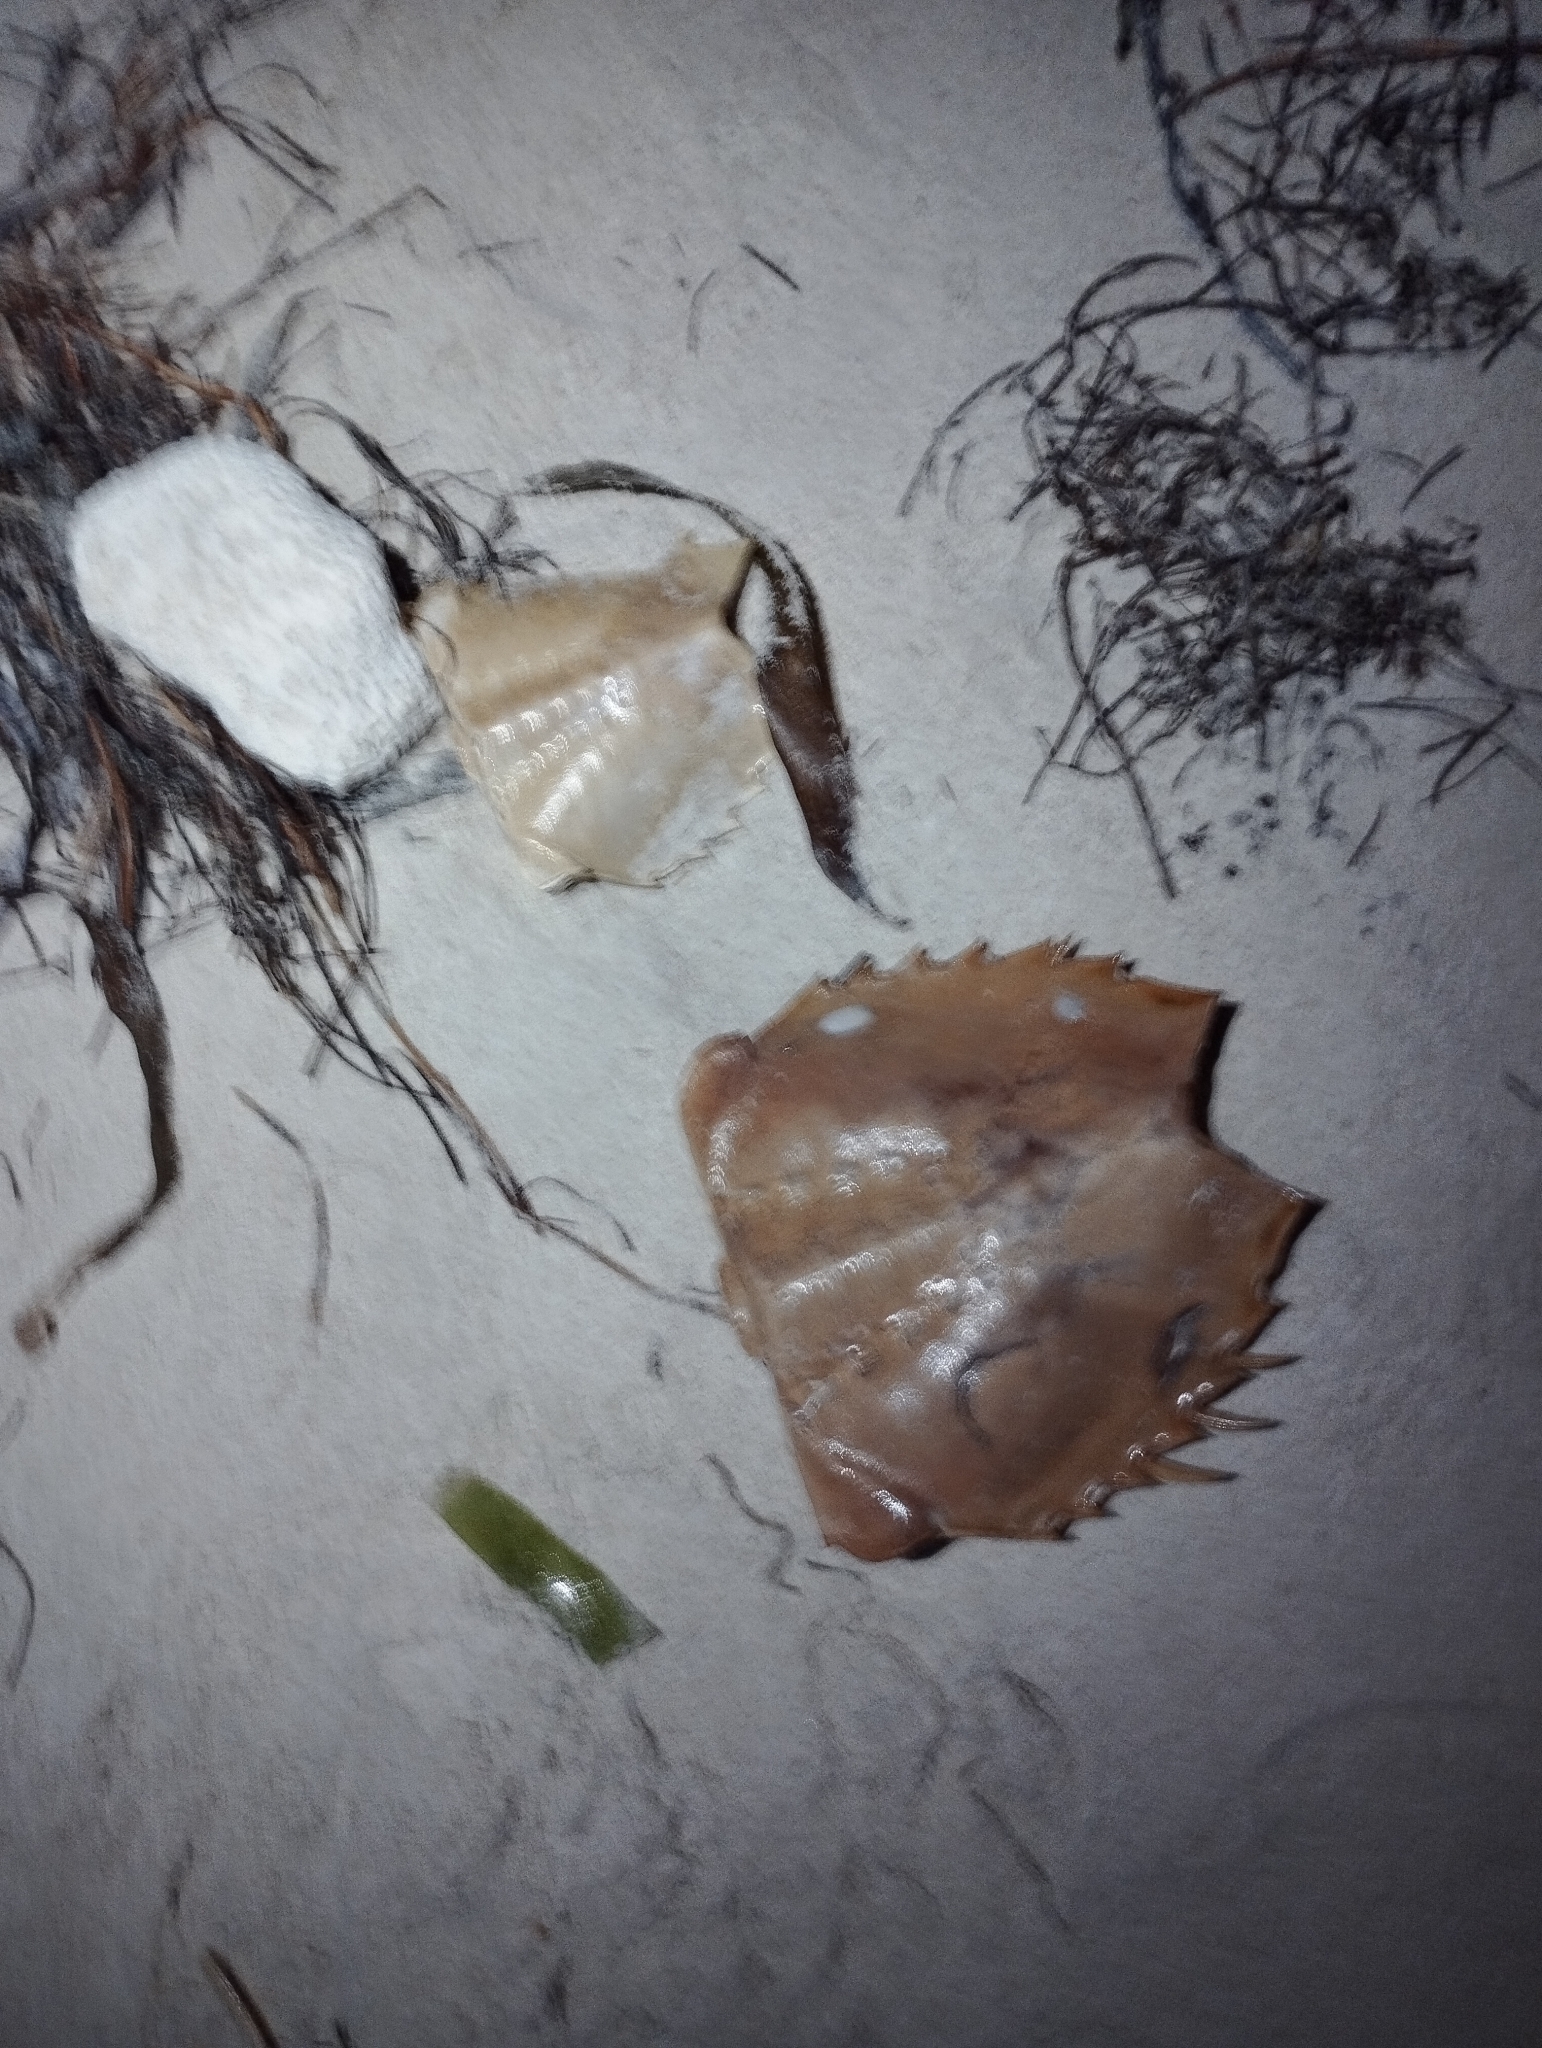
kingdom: Animalia
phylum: Arthropoda
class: Merostomata
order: Xiphosurida
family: Limulidae
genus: Limulus
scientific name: Limulus polyphemus
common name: Horseshoe crab
